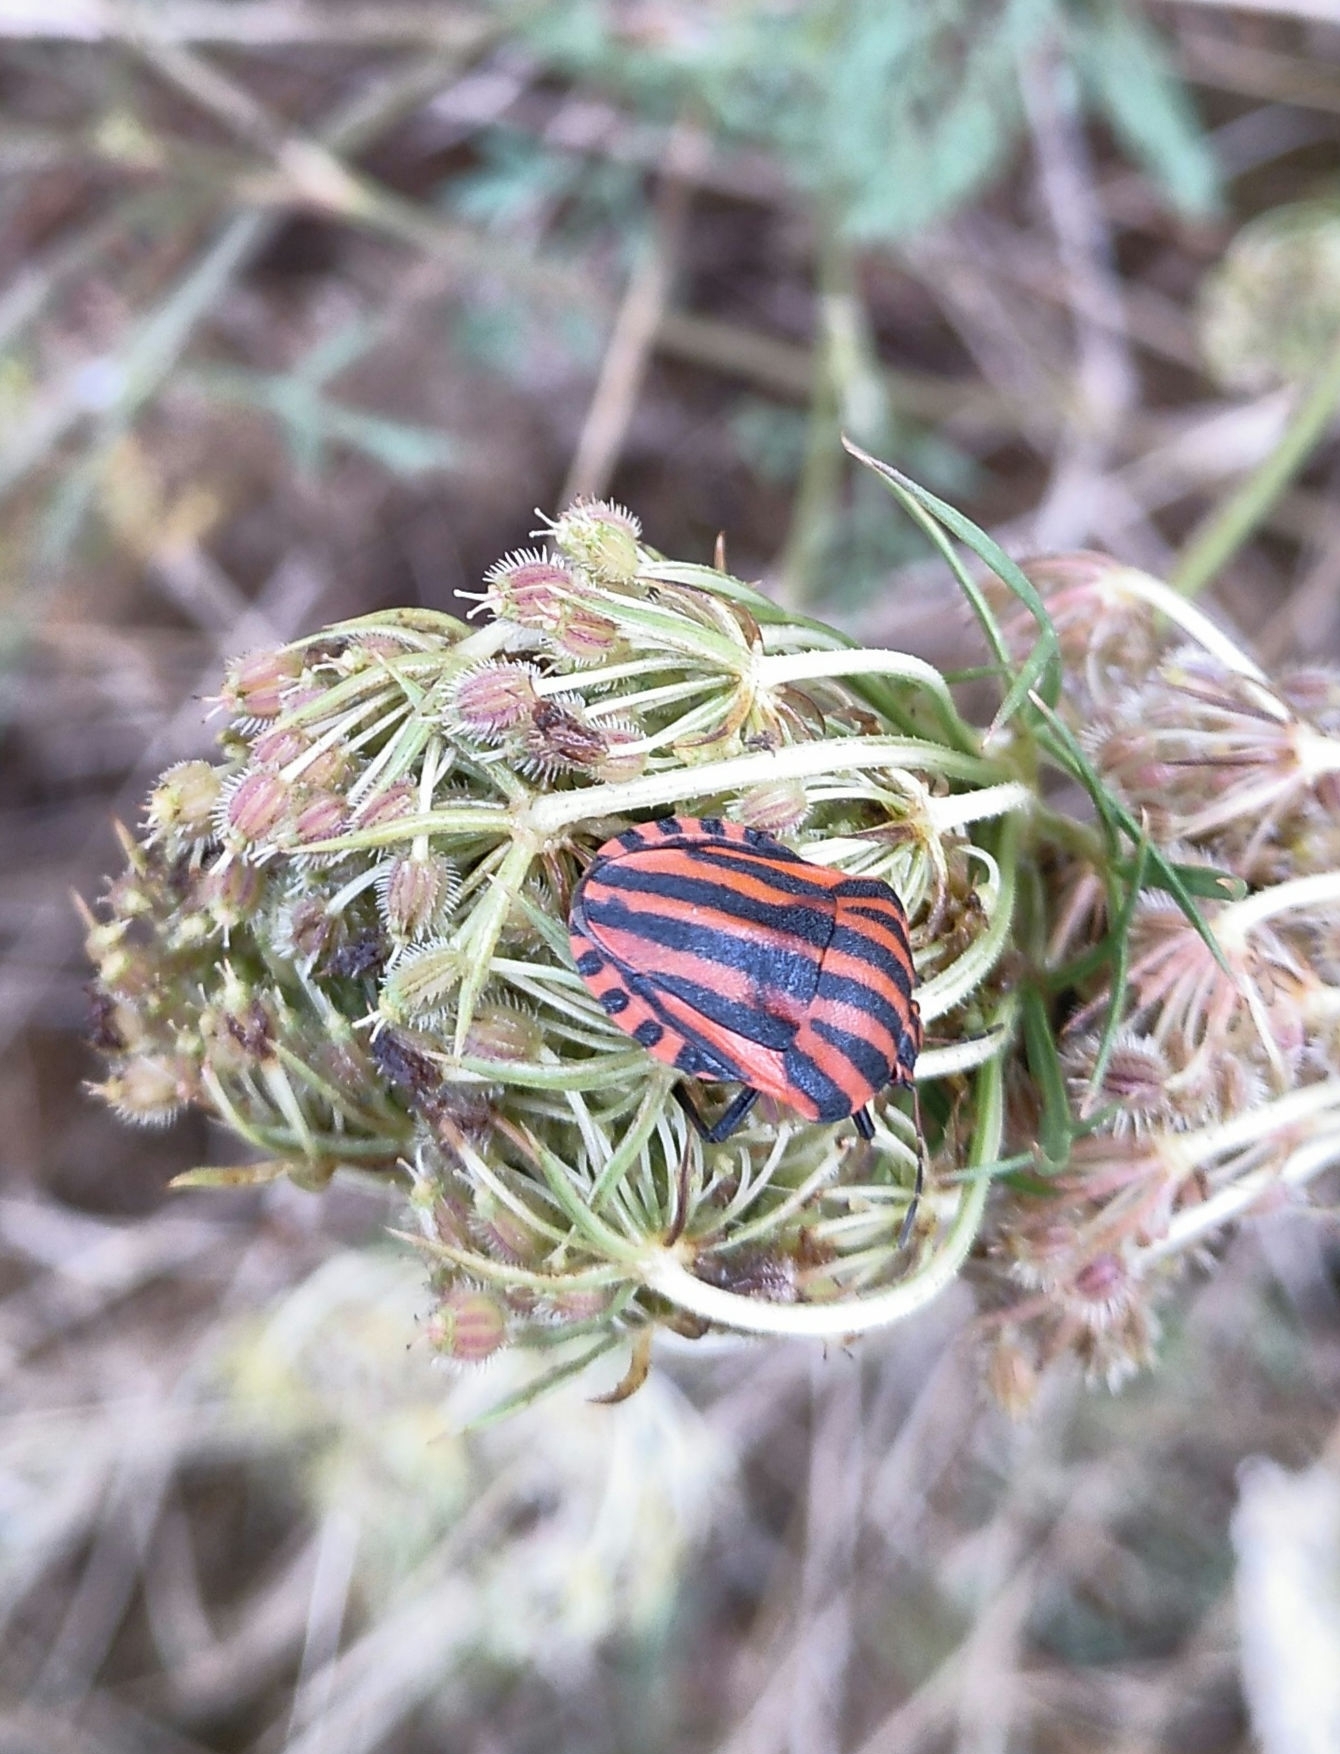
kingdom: Animalia
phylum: Arthropoda
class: Insecta
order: Hemiptera
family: Pentatomidae
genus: Graphosoma
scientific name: Graphosoma italicum
